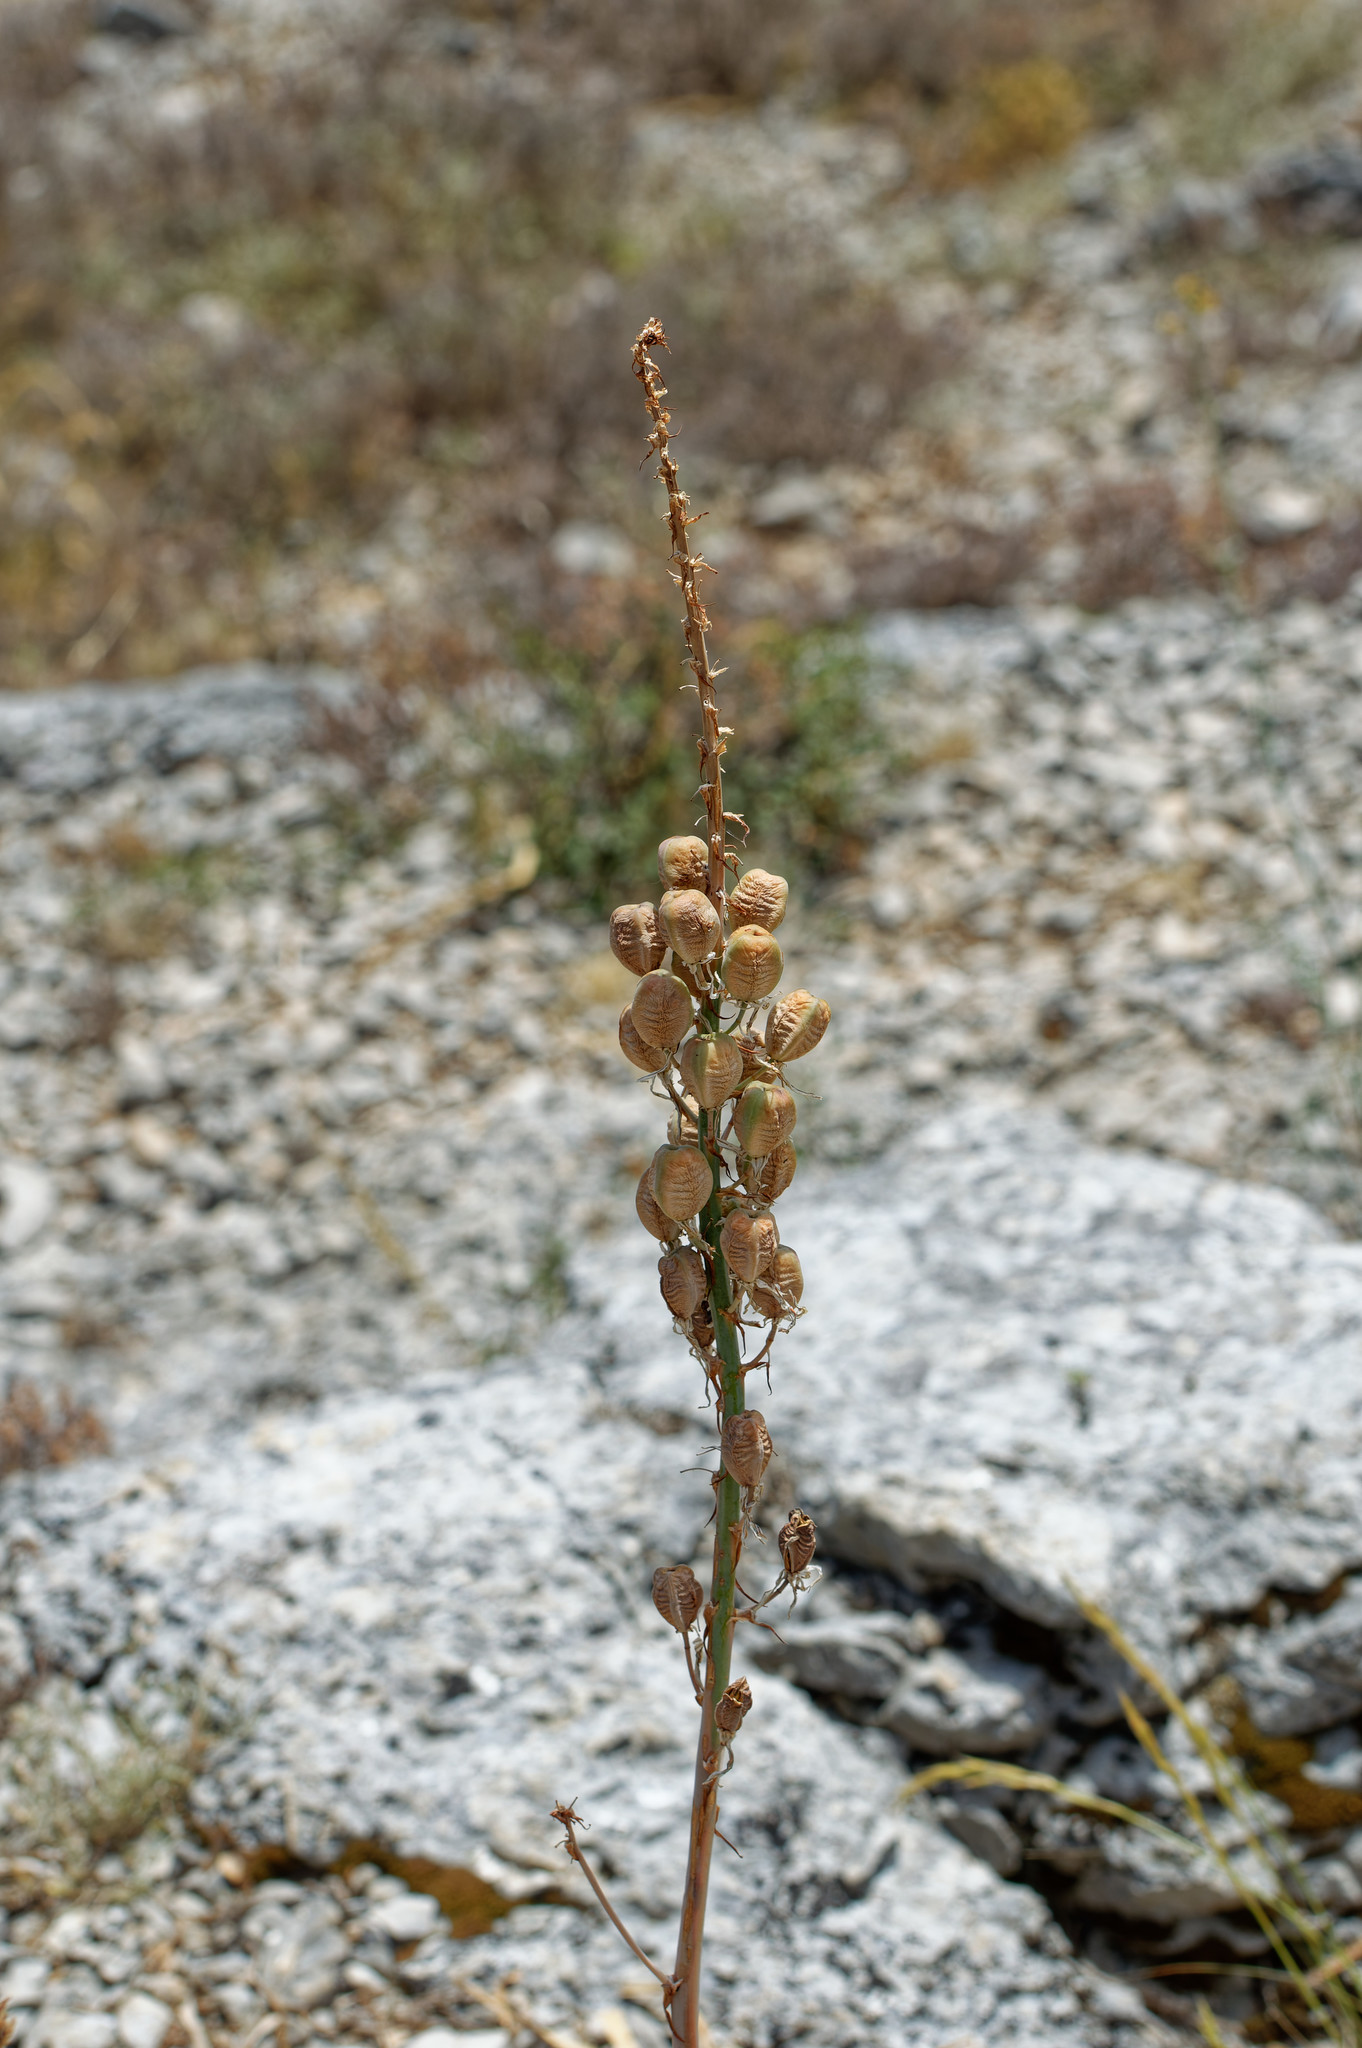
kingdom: Plantae
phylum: Tracheophyta
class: Liliopsida
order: Asparagales
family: Asphodelaceae
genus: Asphodelus
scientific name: Asphodelus cerasifer
